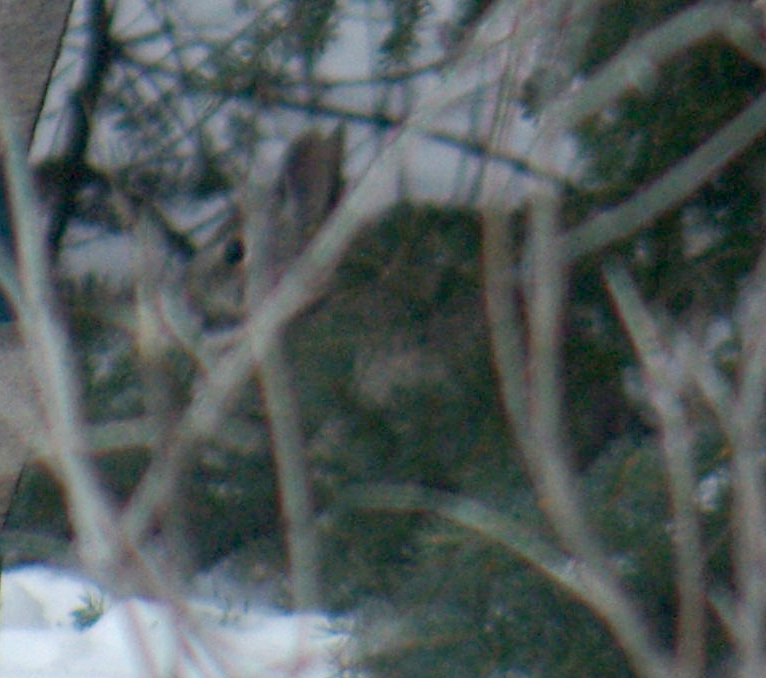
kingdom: Animalia
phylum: Chordata
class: Mammalia
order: Lagomorpha
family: Leporidae
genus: Sylvilagus
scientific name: Sylvilagus floridanus
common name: Eastern cottontail
